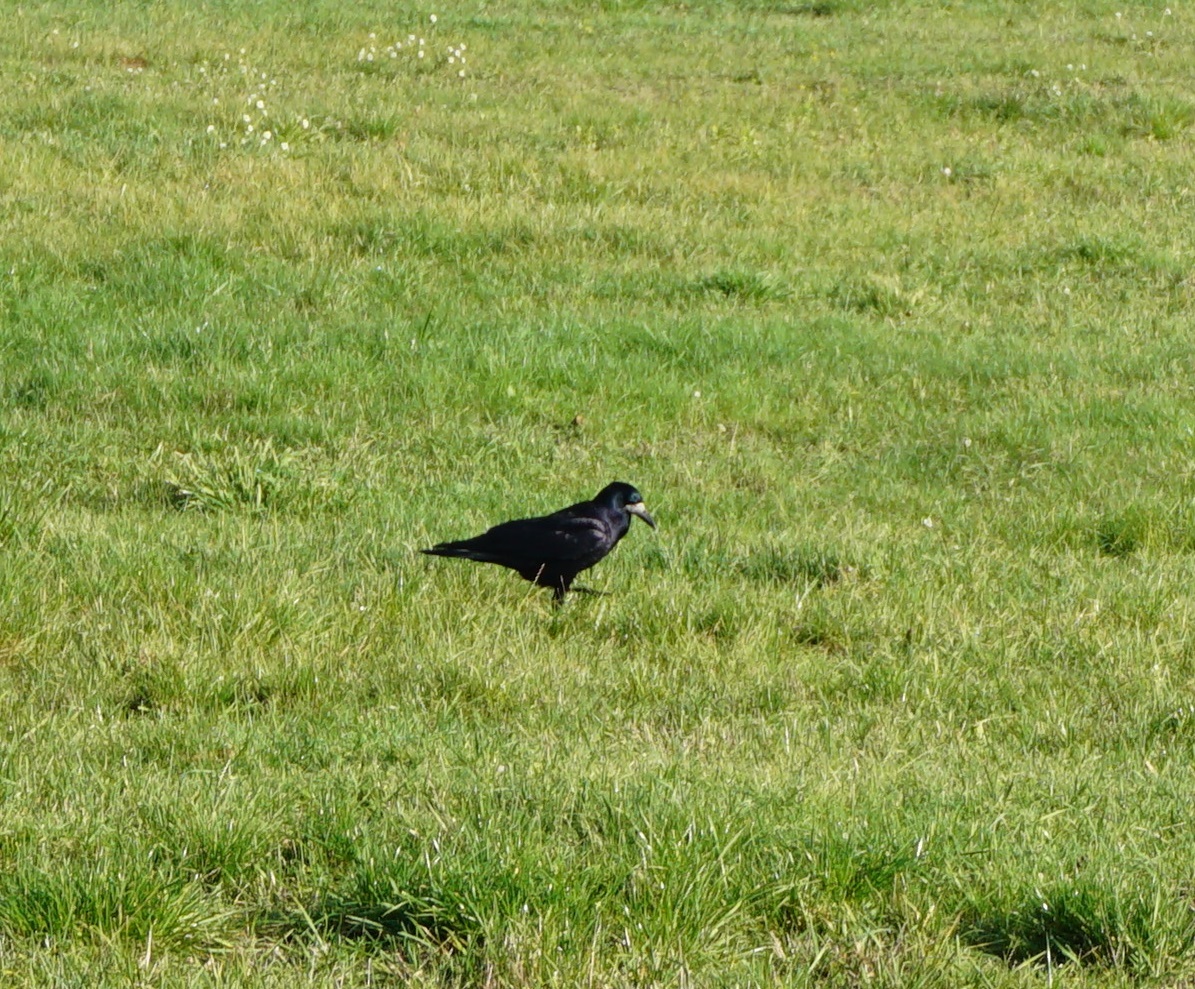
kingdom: Animalia
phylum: Chordata
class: Aves
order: Passeriformes
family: Corvidae
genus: Corvus
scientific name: Corvus frugilegus
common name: Rook
